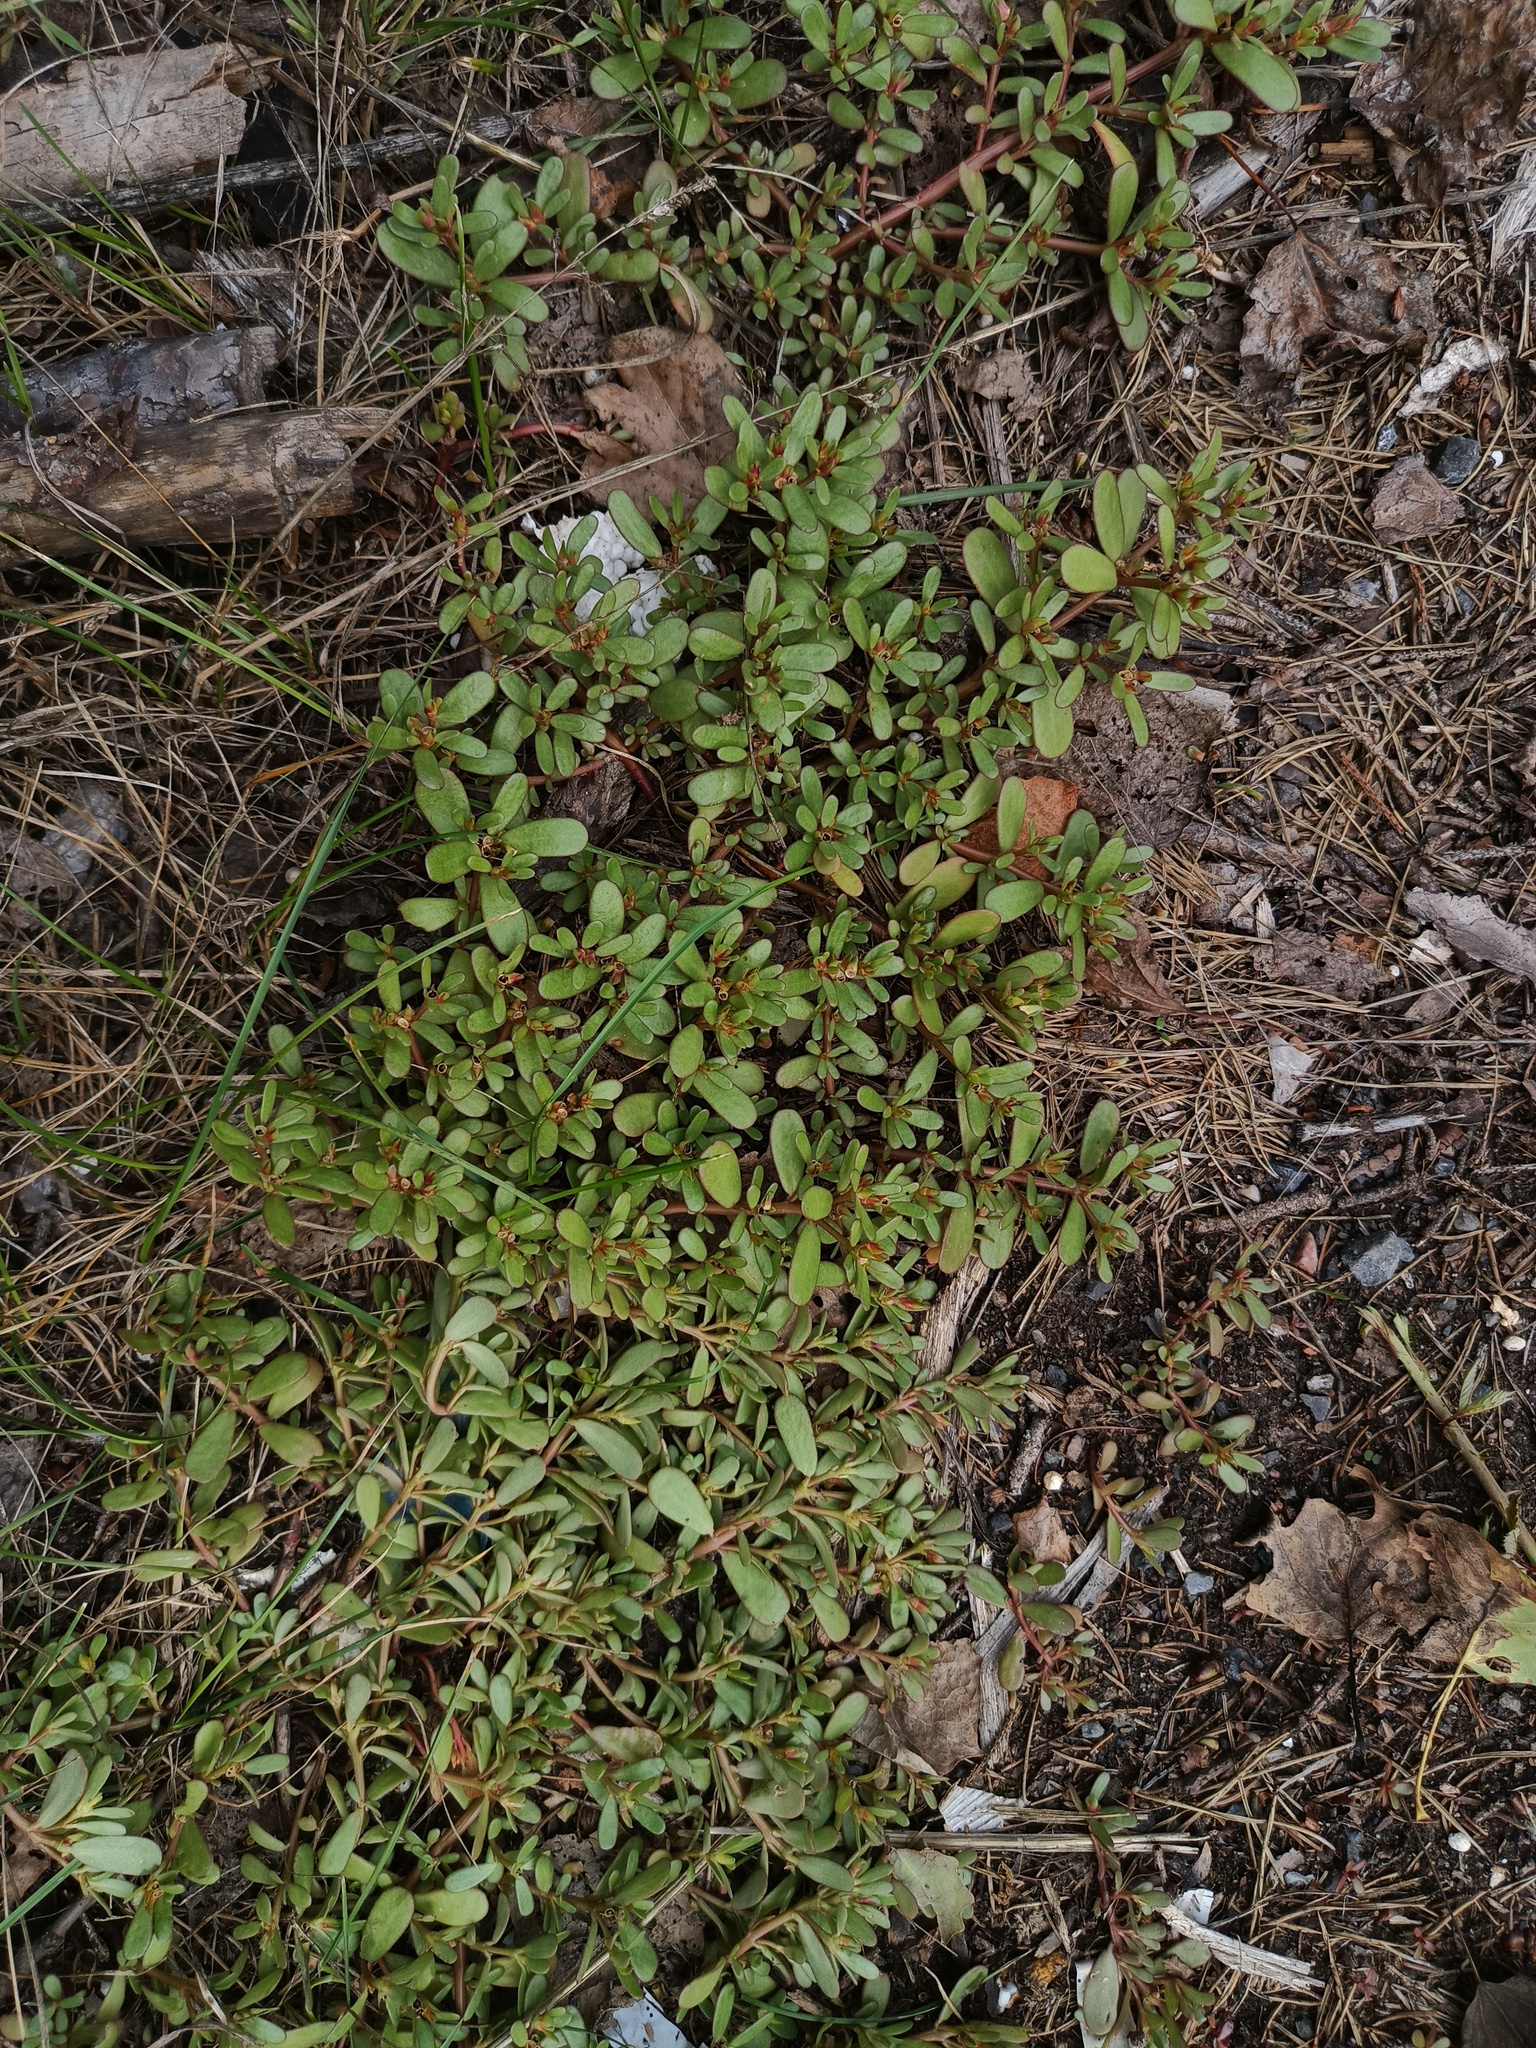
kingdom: Plantae
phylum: Tracheophyta
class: Magnoliopsida
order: Caryophyllales
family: Portulacaceae
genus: Portulaca
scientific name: Portulaca oleracea
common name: Common purslane
